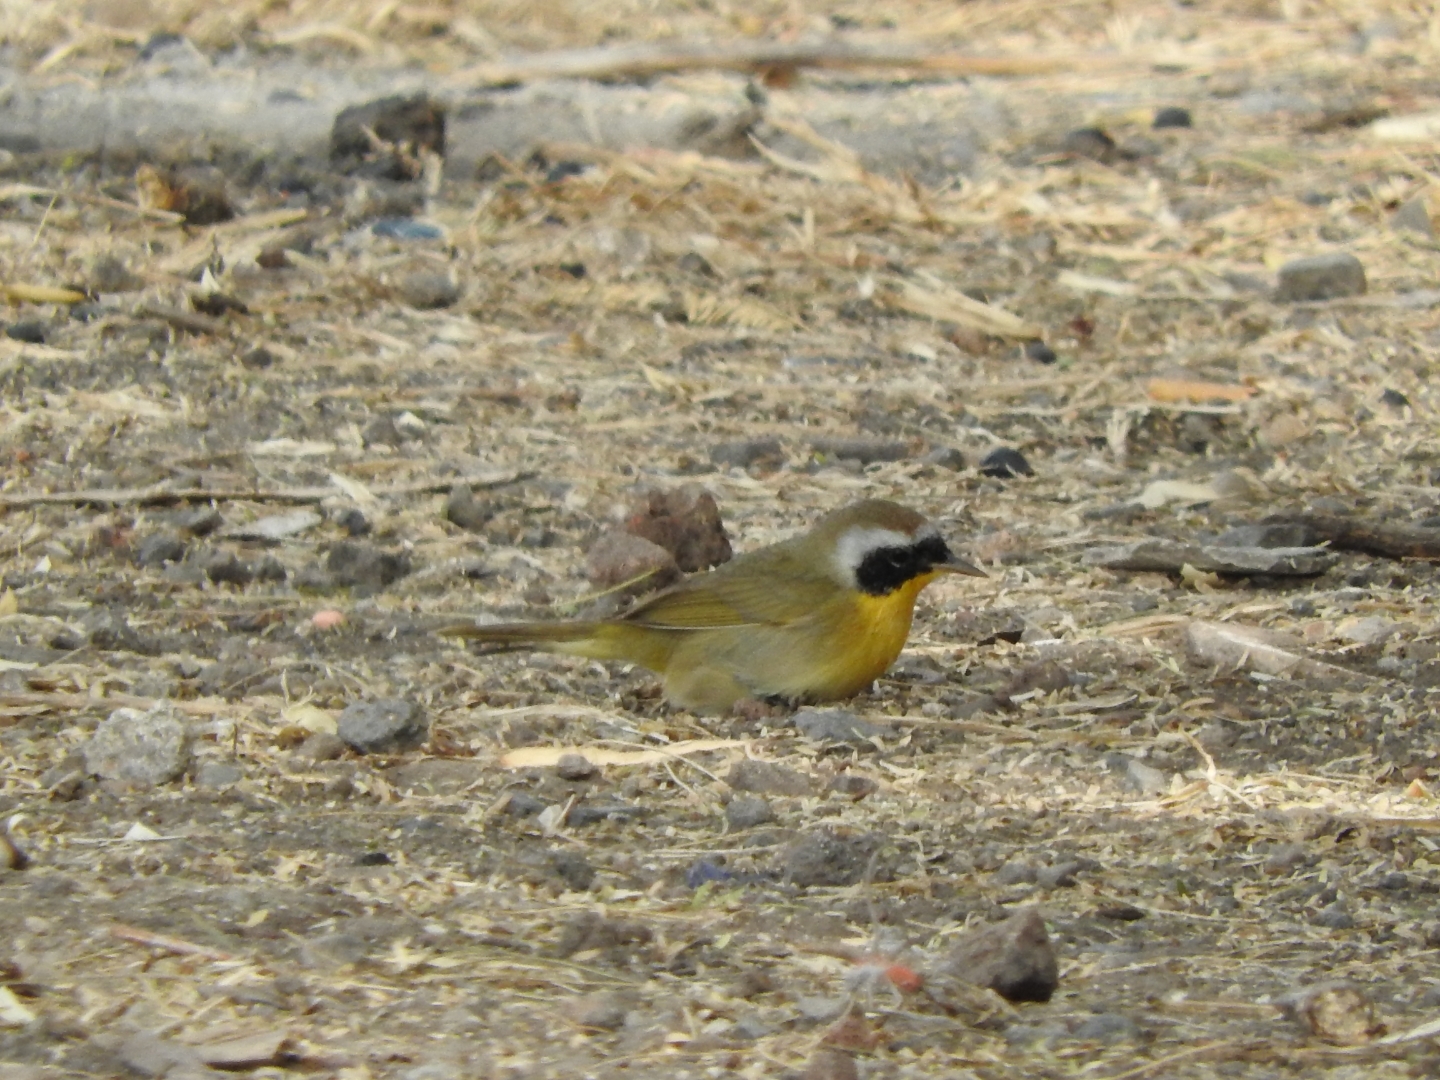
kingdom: Animalia
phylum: Chordata
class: Aves
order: Passeriformes
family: Parulidae
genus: Geothlypis
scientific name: Geothlypis trichas
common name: Common yellowthroat
